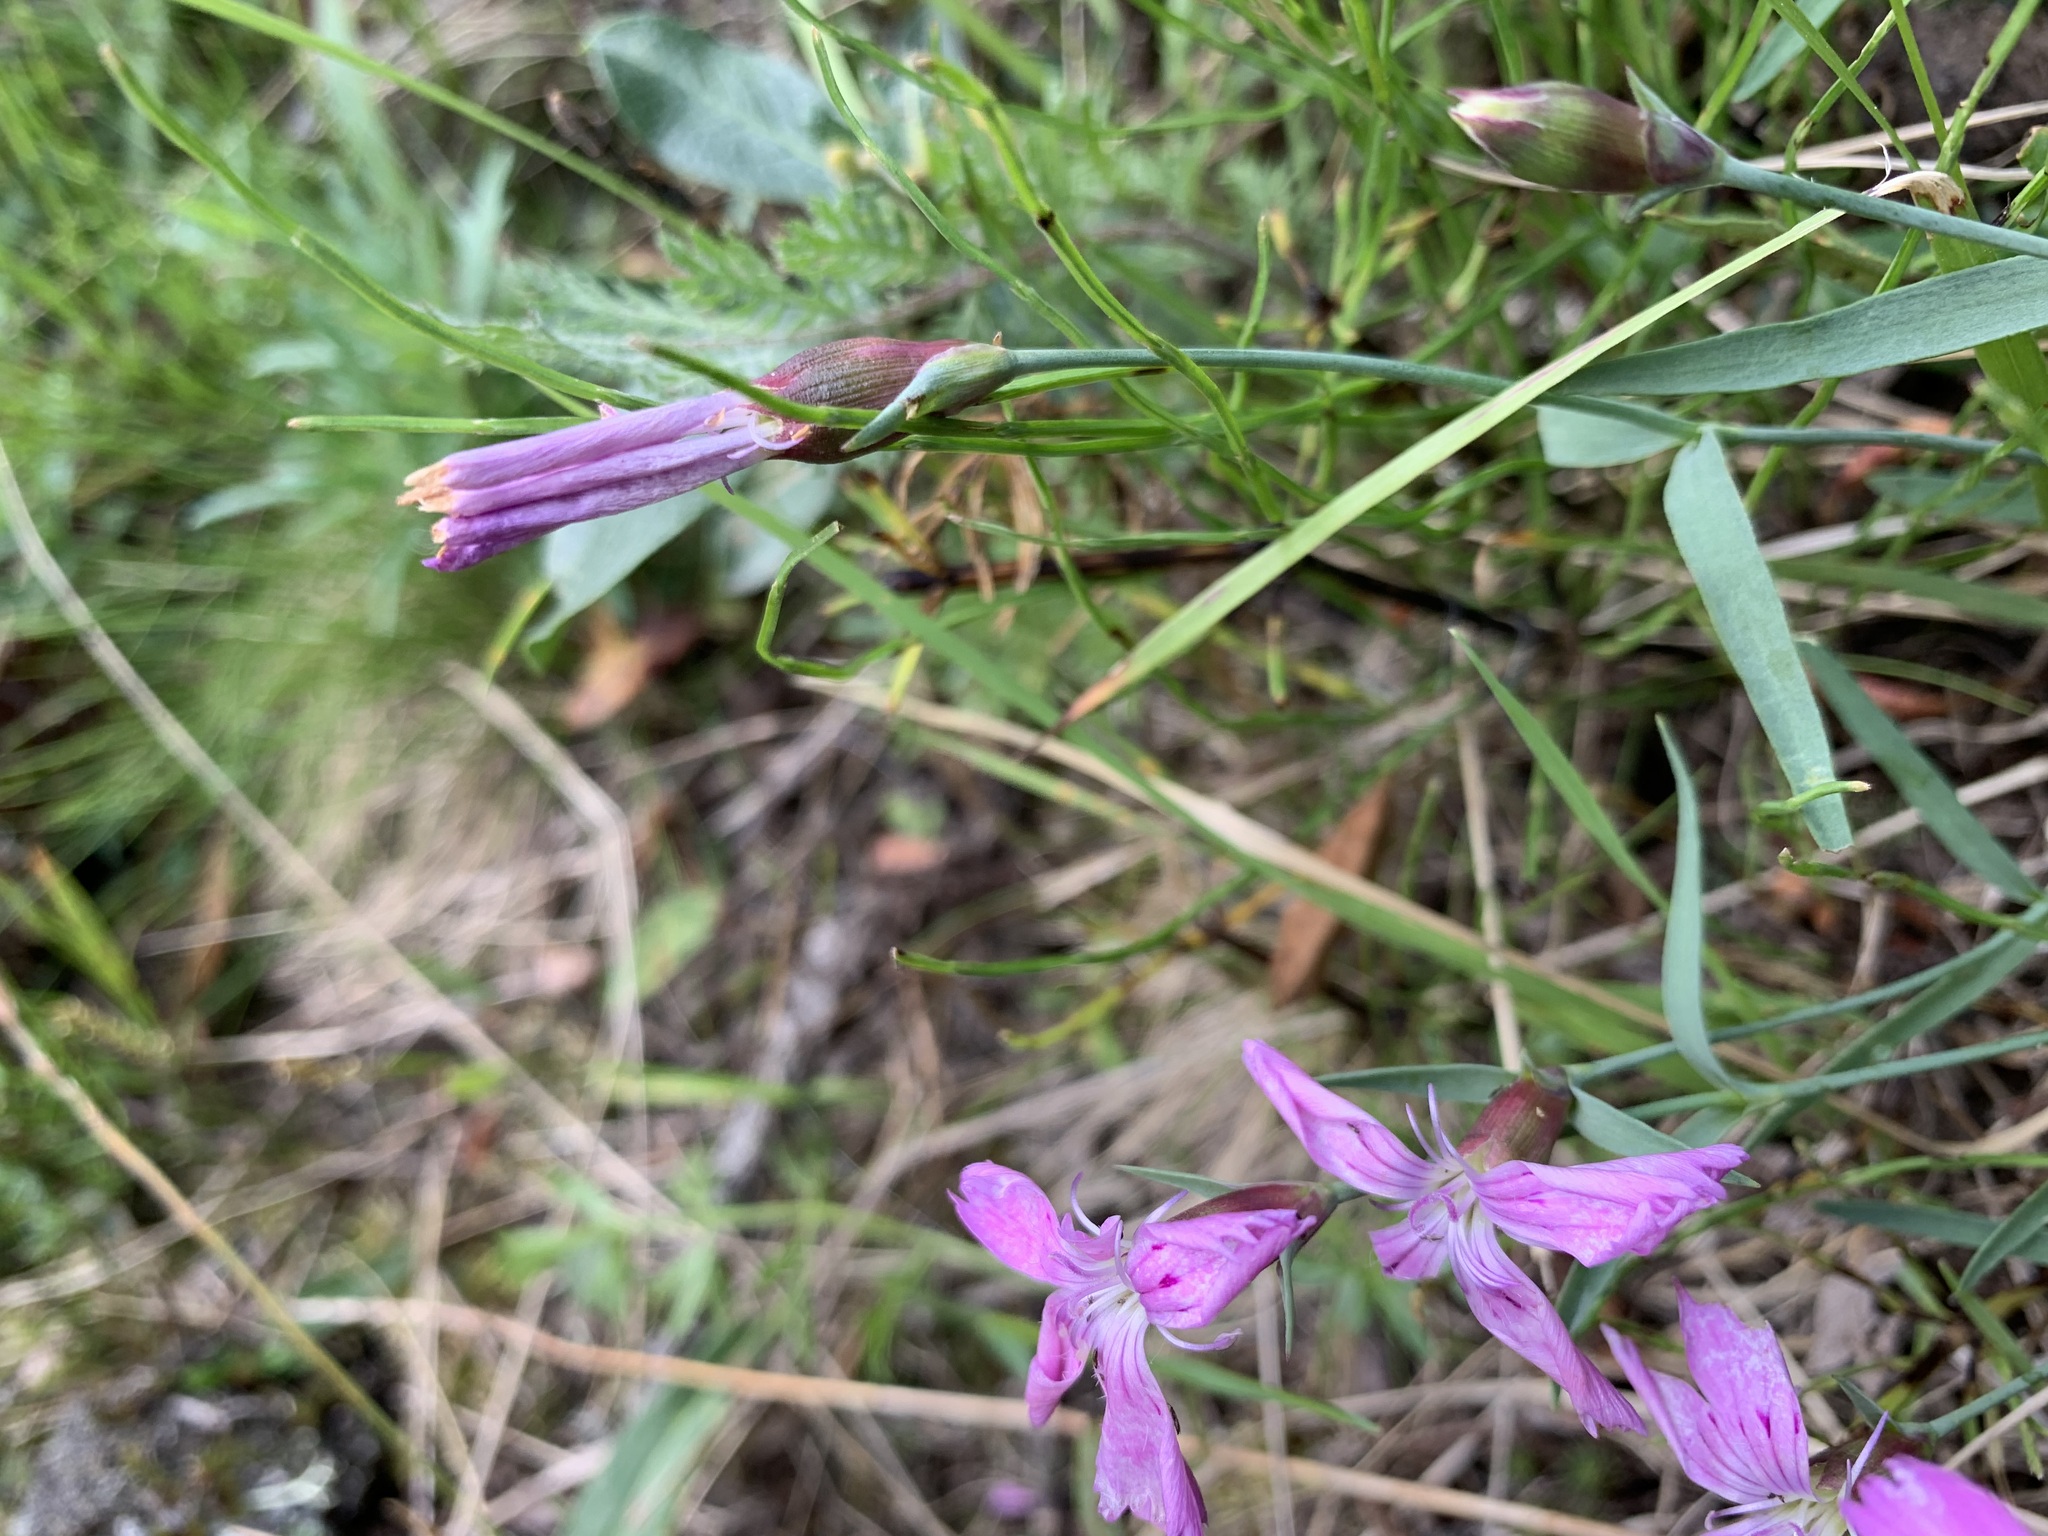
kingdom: Plantae
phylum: Tracheophyta
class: Magnoliopsida
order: Caryophyllales
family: Caryophyllaceae
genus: Dianthus
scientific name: Dianthus repens
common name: Northern pink
